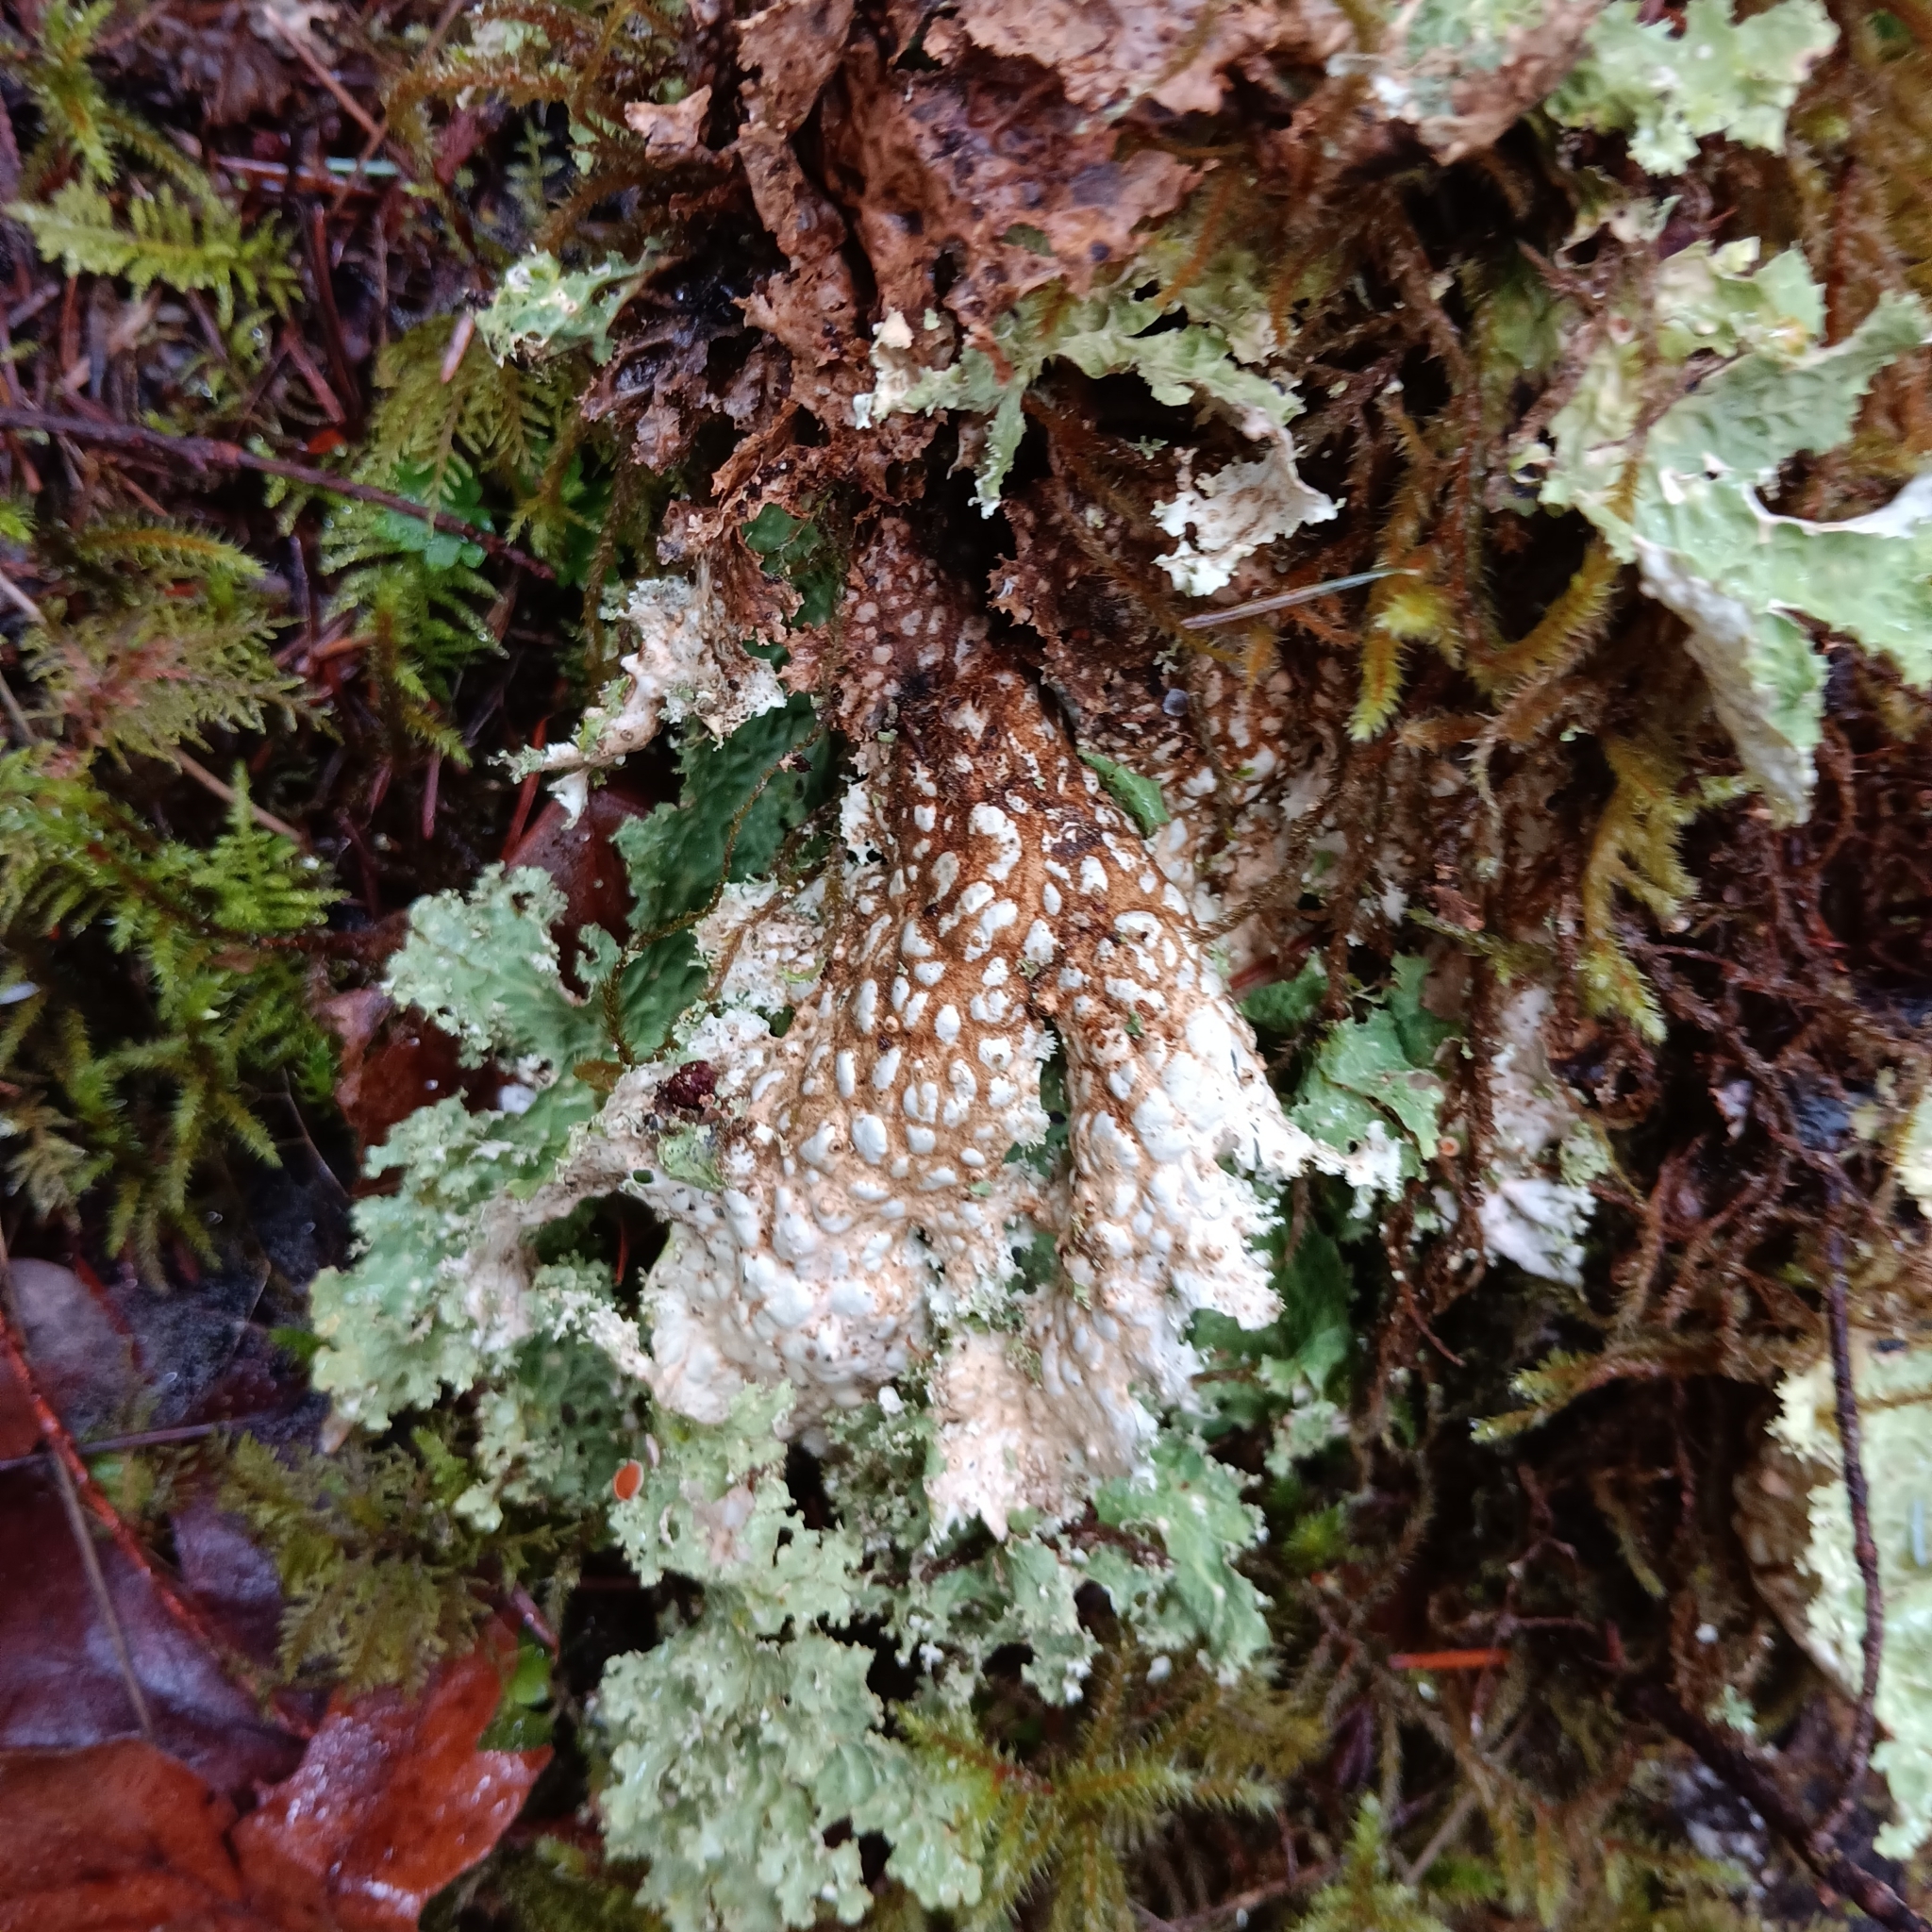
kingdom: Fungi
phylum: Ascomycota
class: Lecanoromycetes
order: Peltigerales
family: Lobariaceae
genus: Lobaria
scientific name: Lobaria oregana
